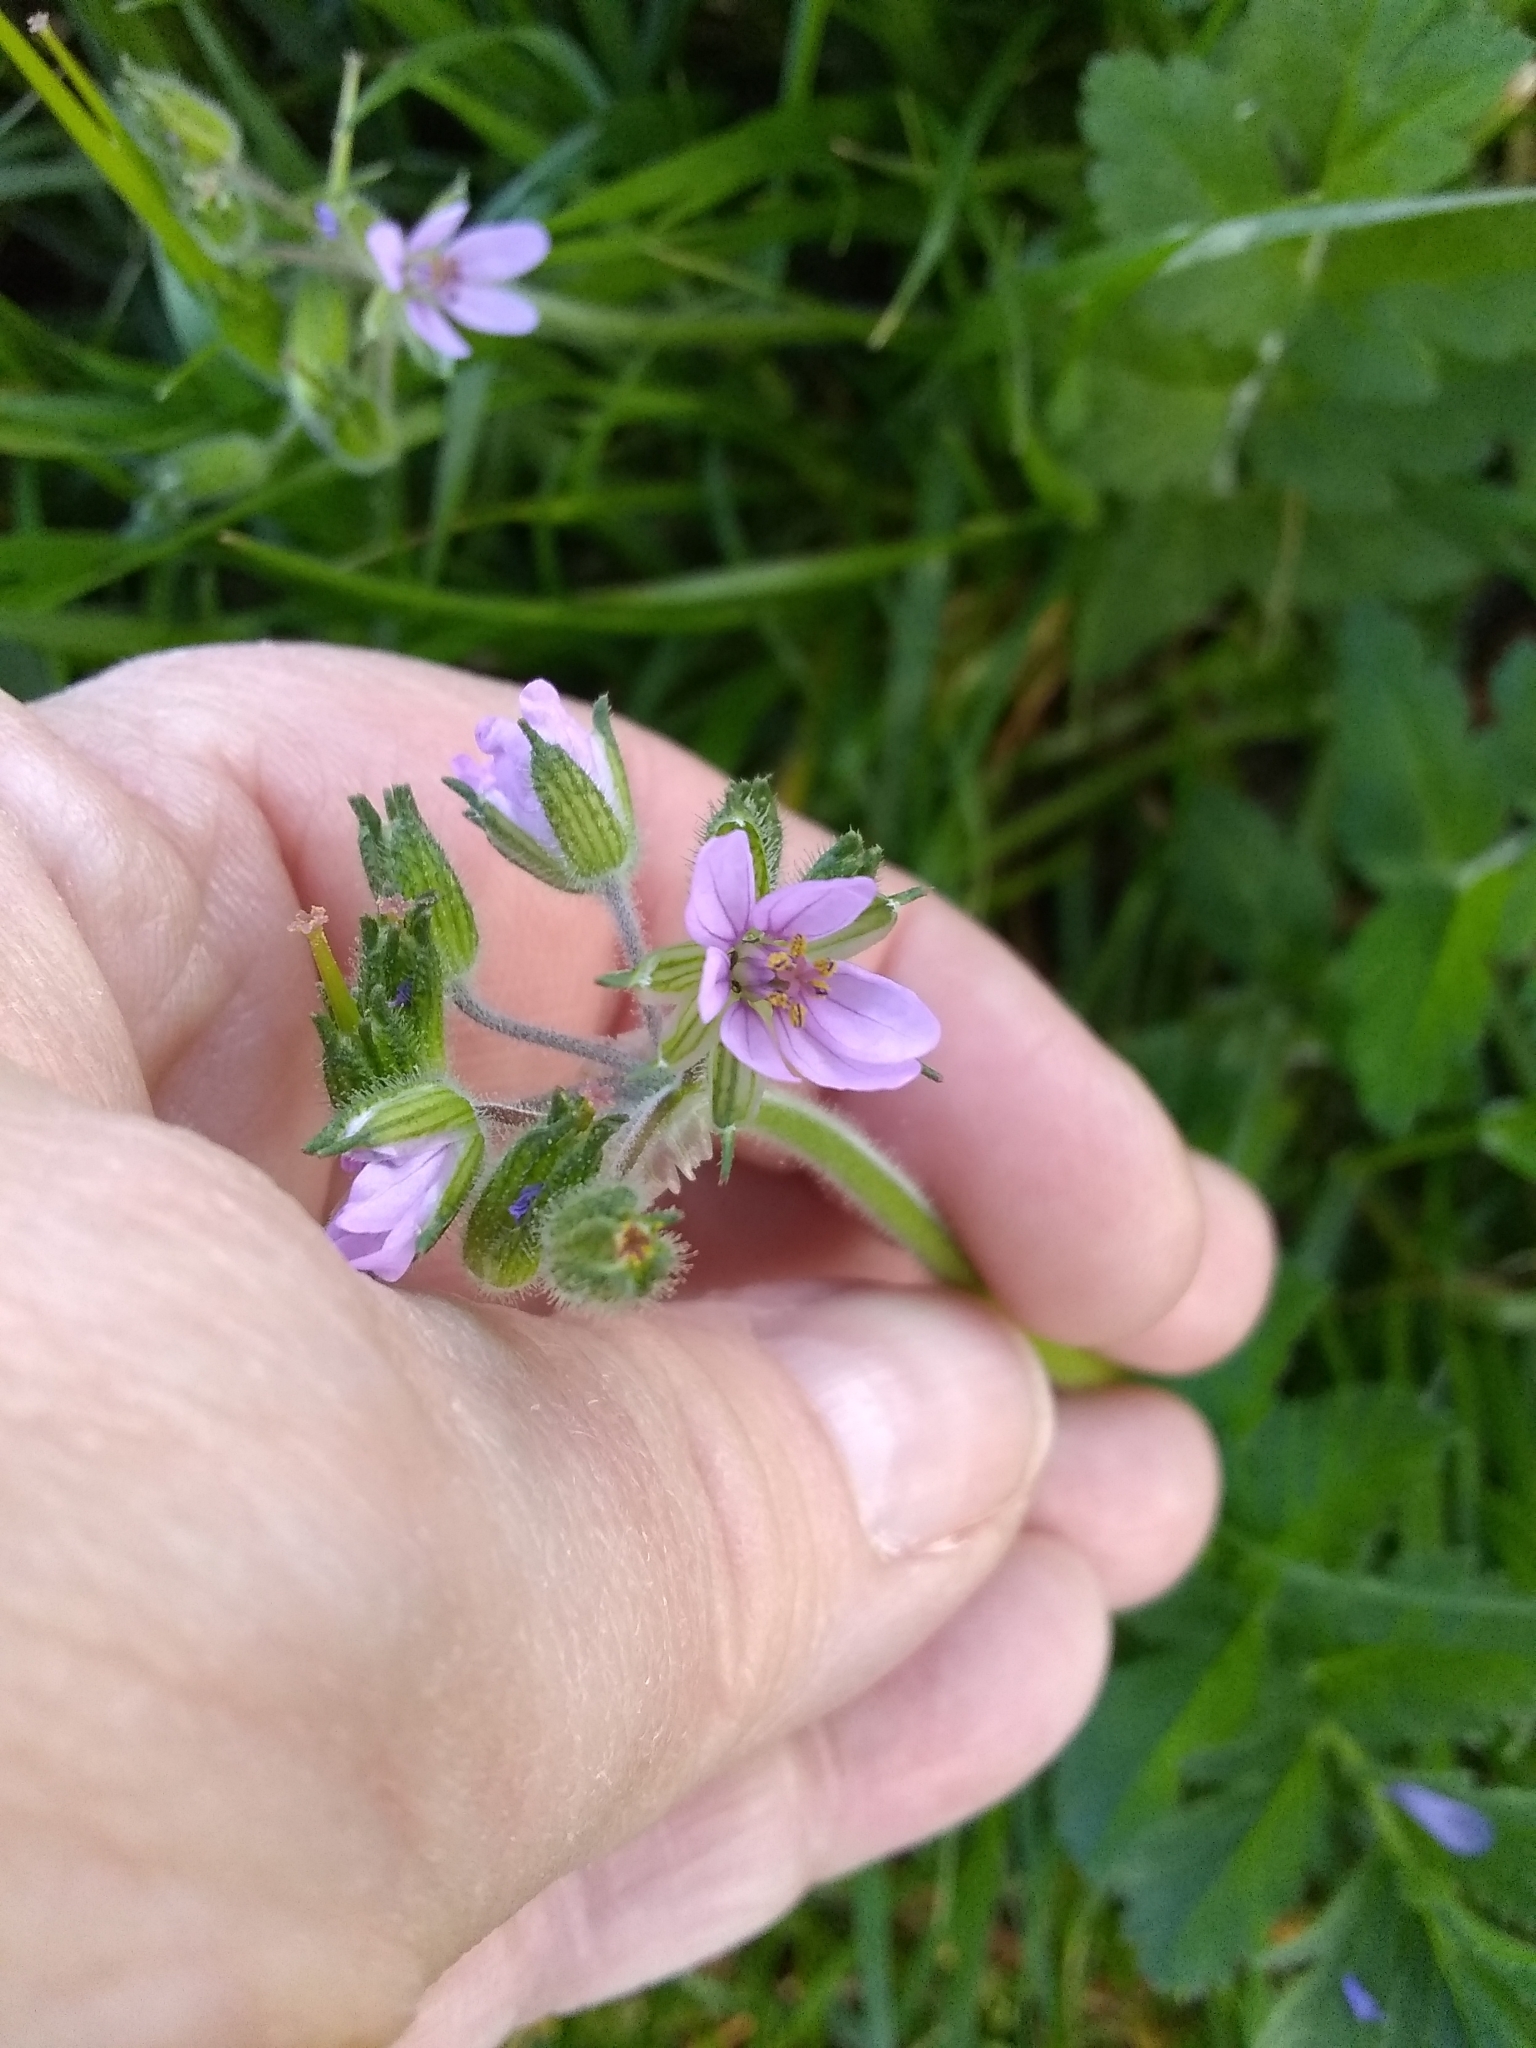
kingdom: Plantae
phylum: Tracheophyta
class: Magnoliopsida
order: Geraniales
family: Geraniaceae
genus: Erodium
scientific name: Erodium moschatum
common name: Musk stork's-bill
